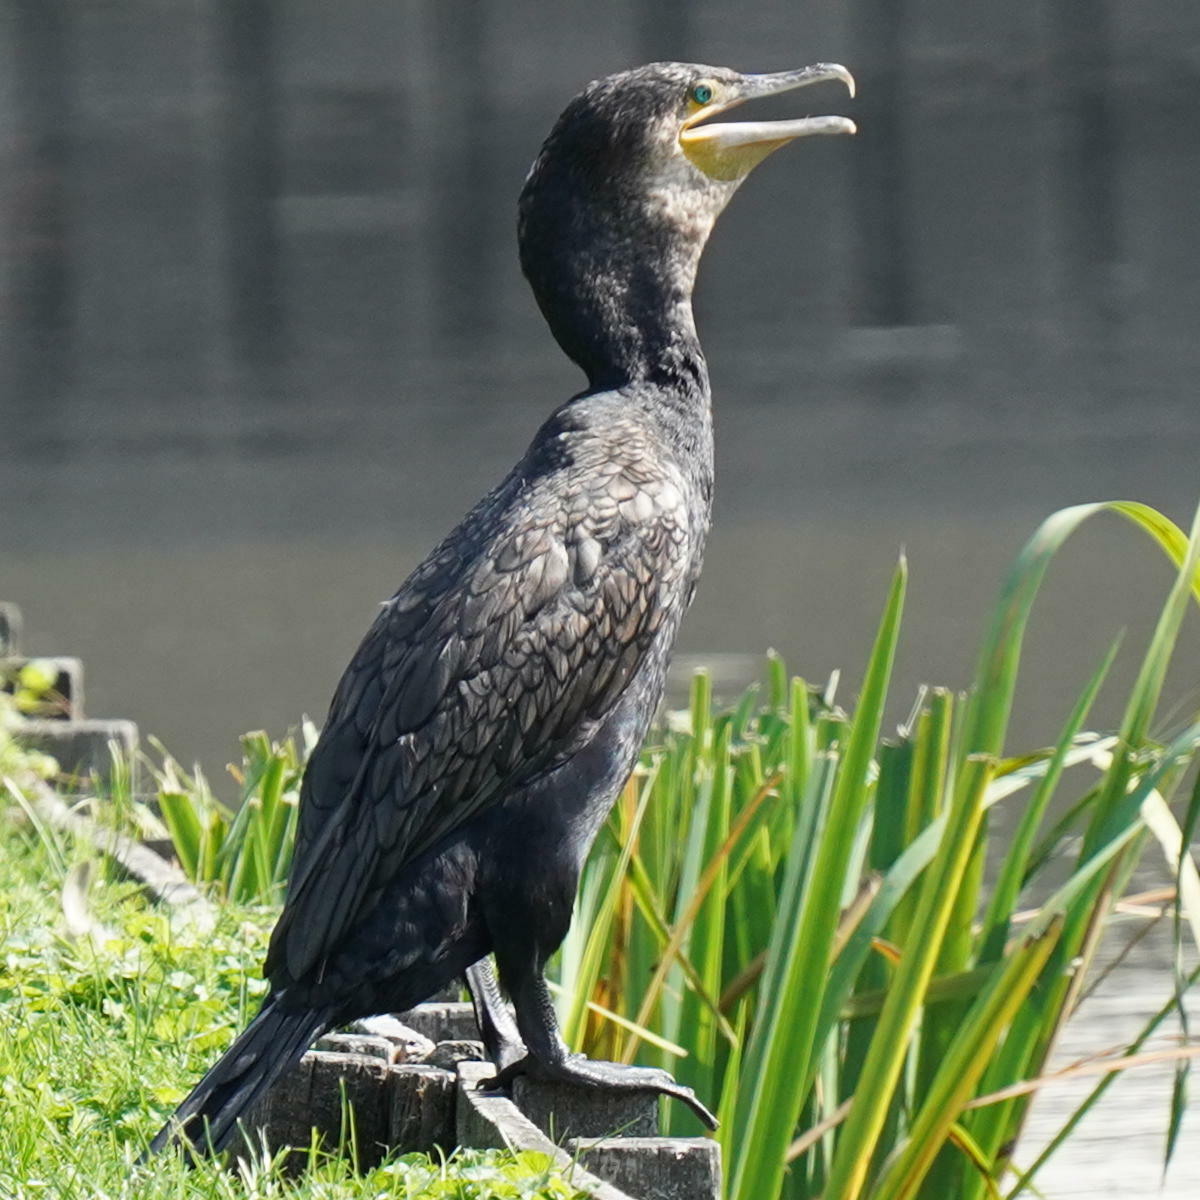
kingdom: Animalia
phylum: Chordata
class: Aves
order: Suliformes
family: Phalacrocoracidae
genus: Phalacrocorax
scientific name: Phalacrocorax carbo
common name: Great cormorant
